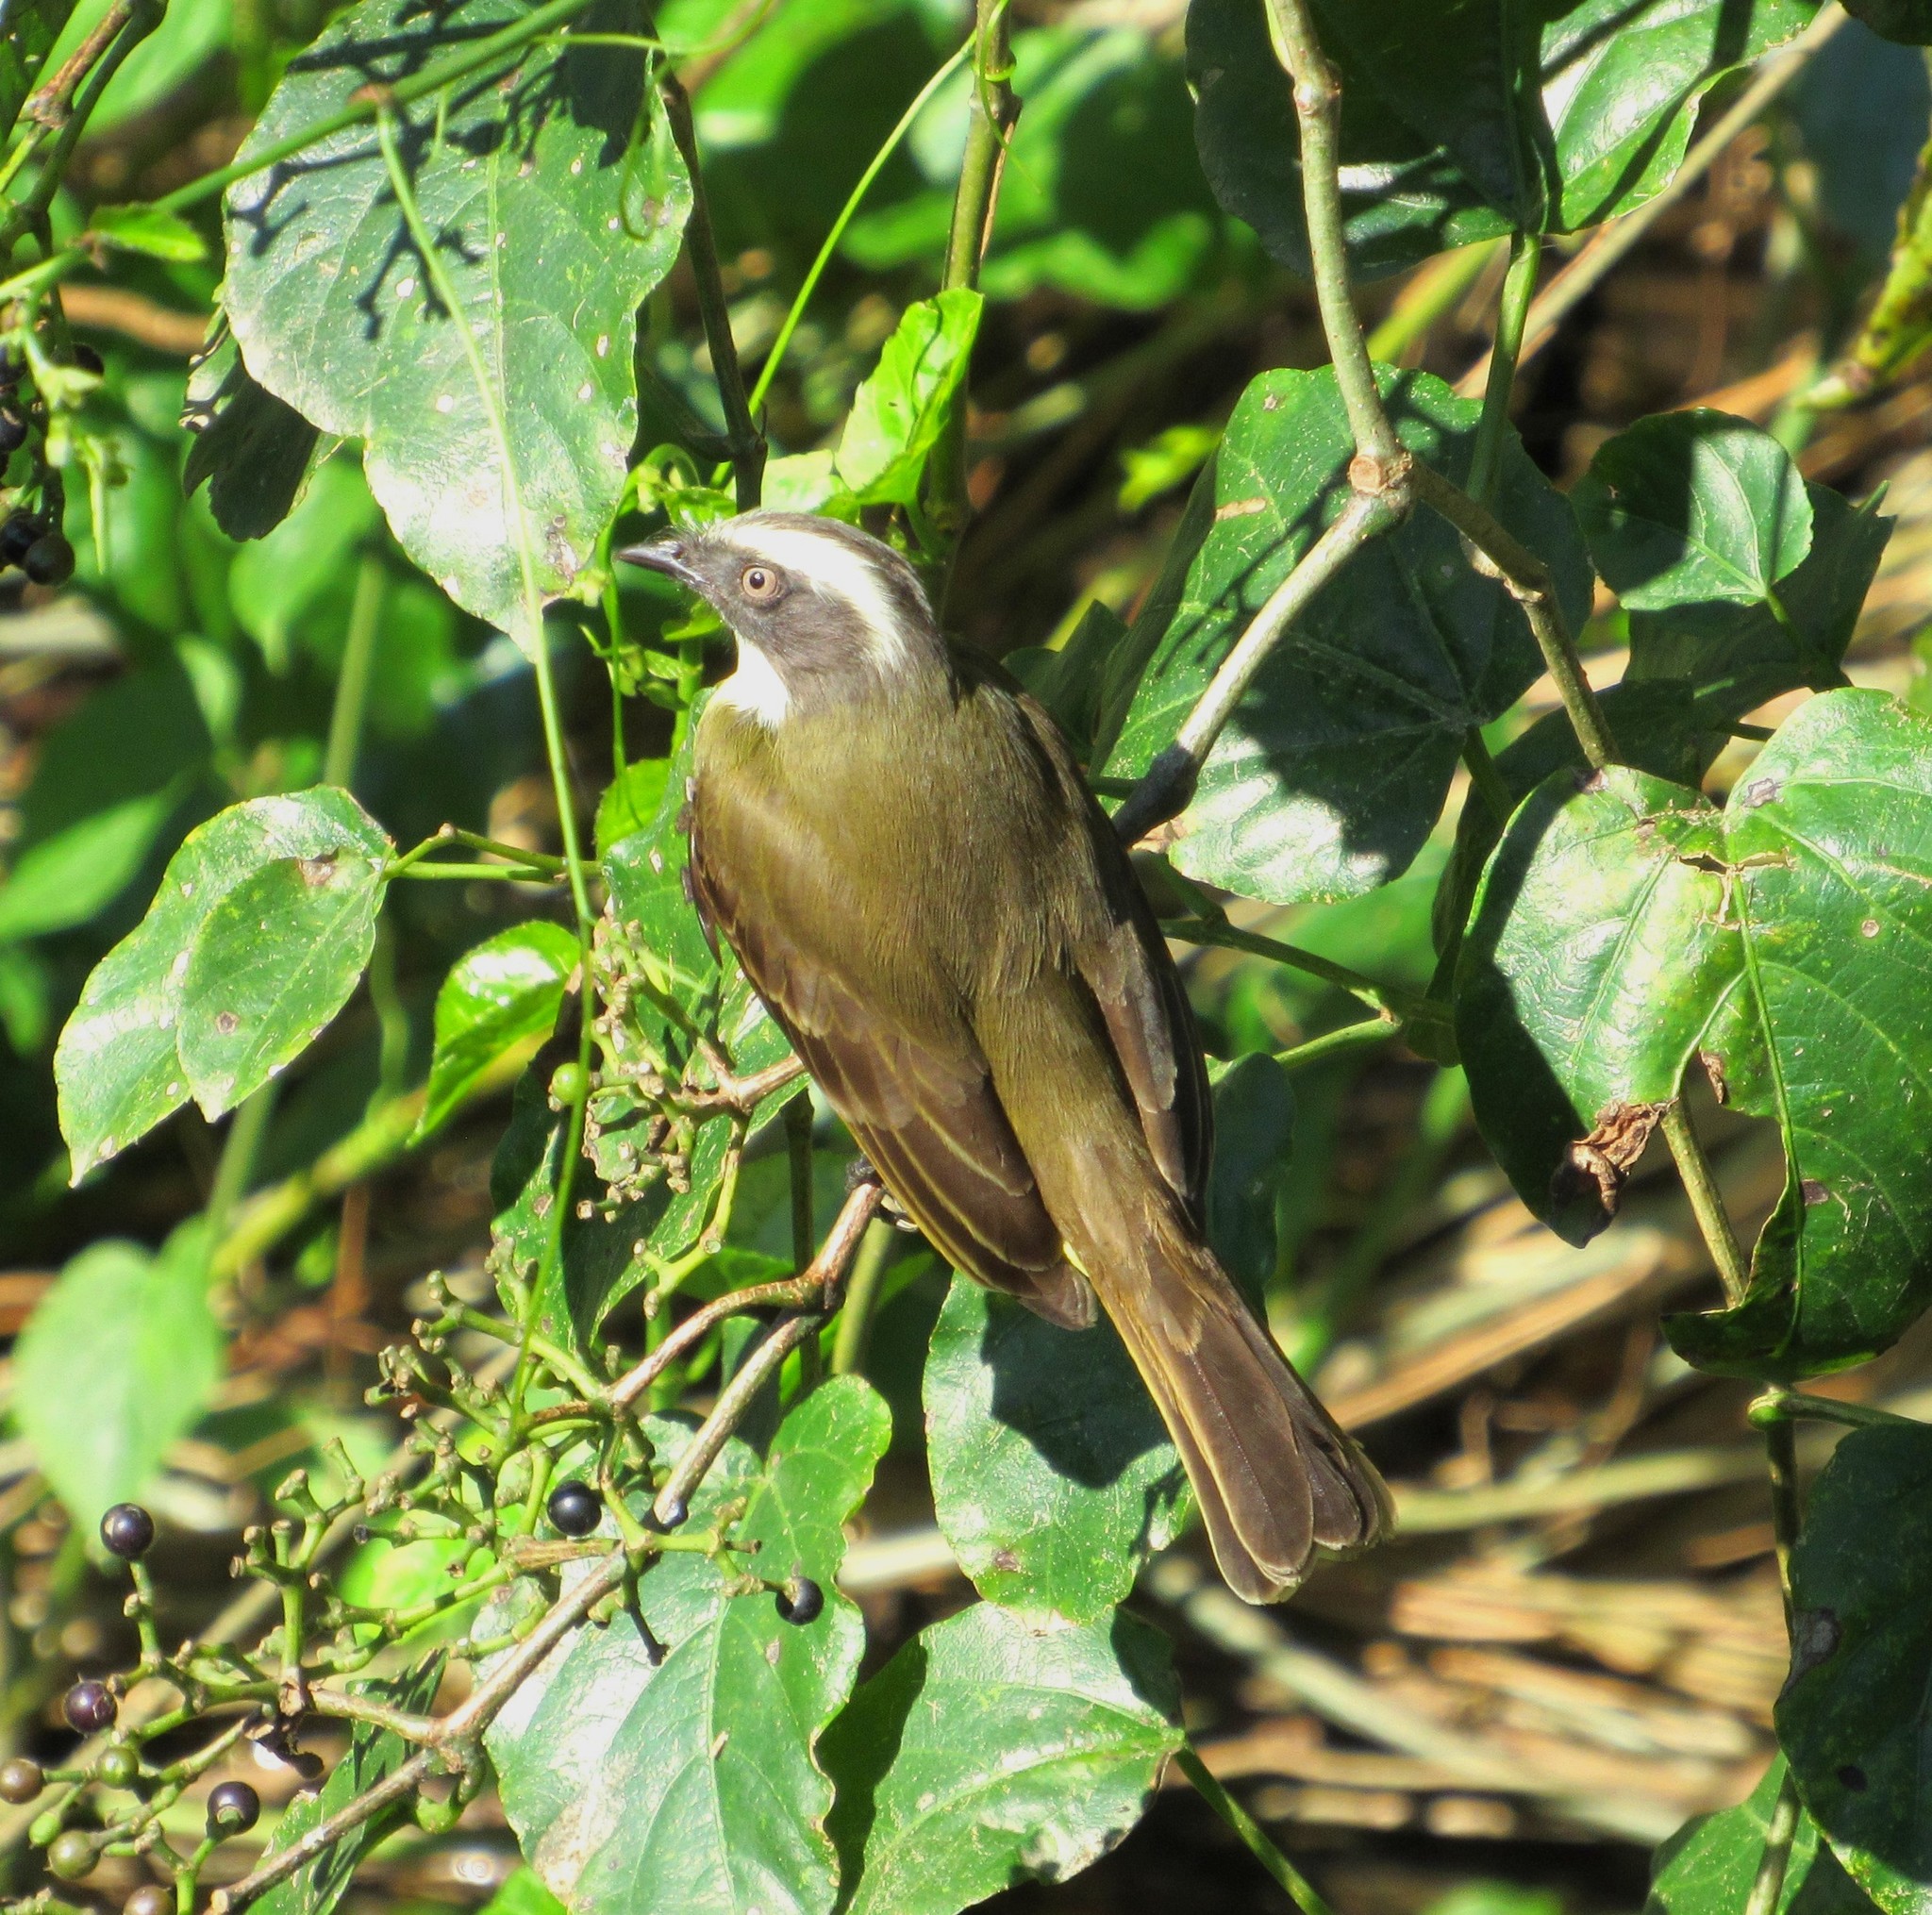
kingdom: Animalia
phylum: Chordata
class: Aves
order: Passeriformes
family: Tyrannidae
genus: Myiozetetes
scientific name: Myiozetetes similis
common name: Social flycatcher
